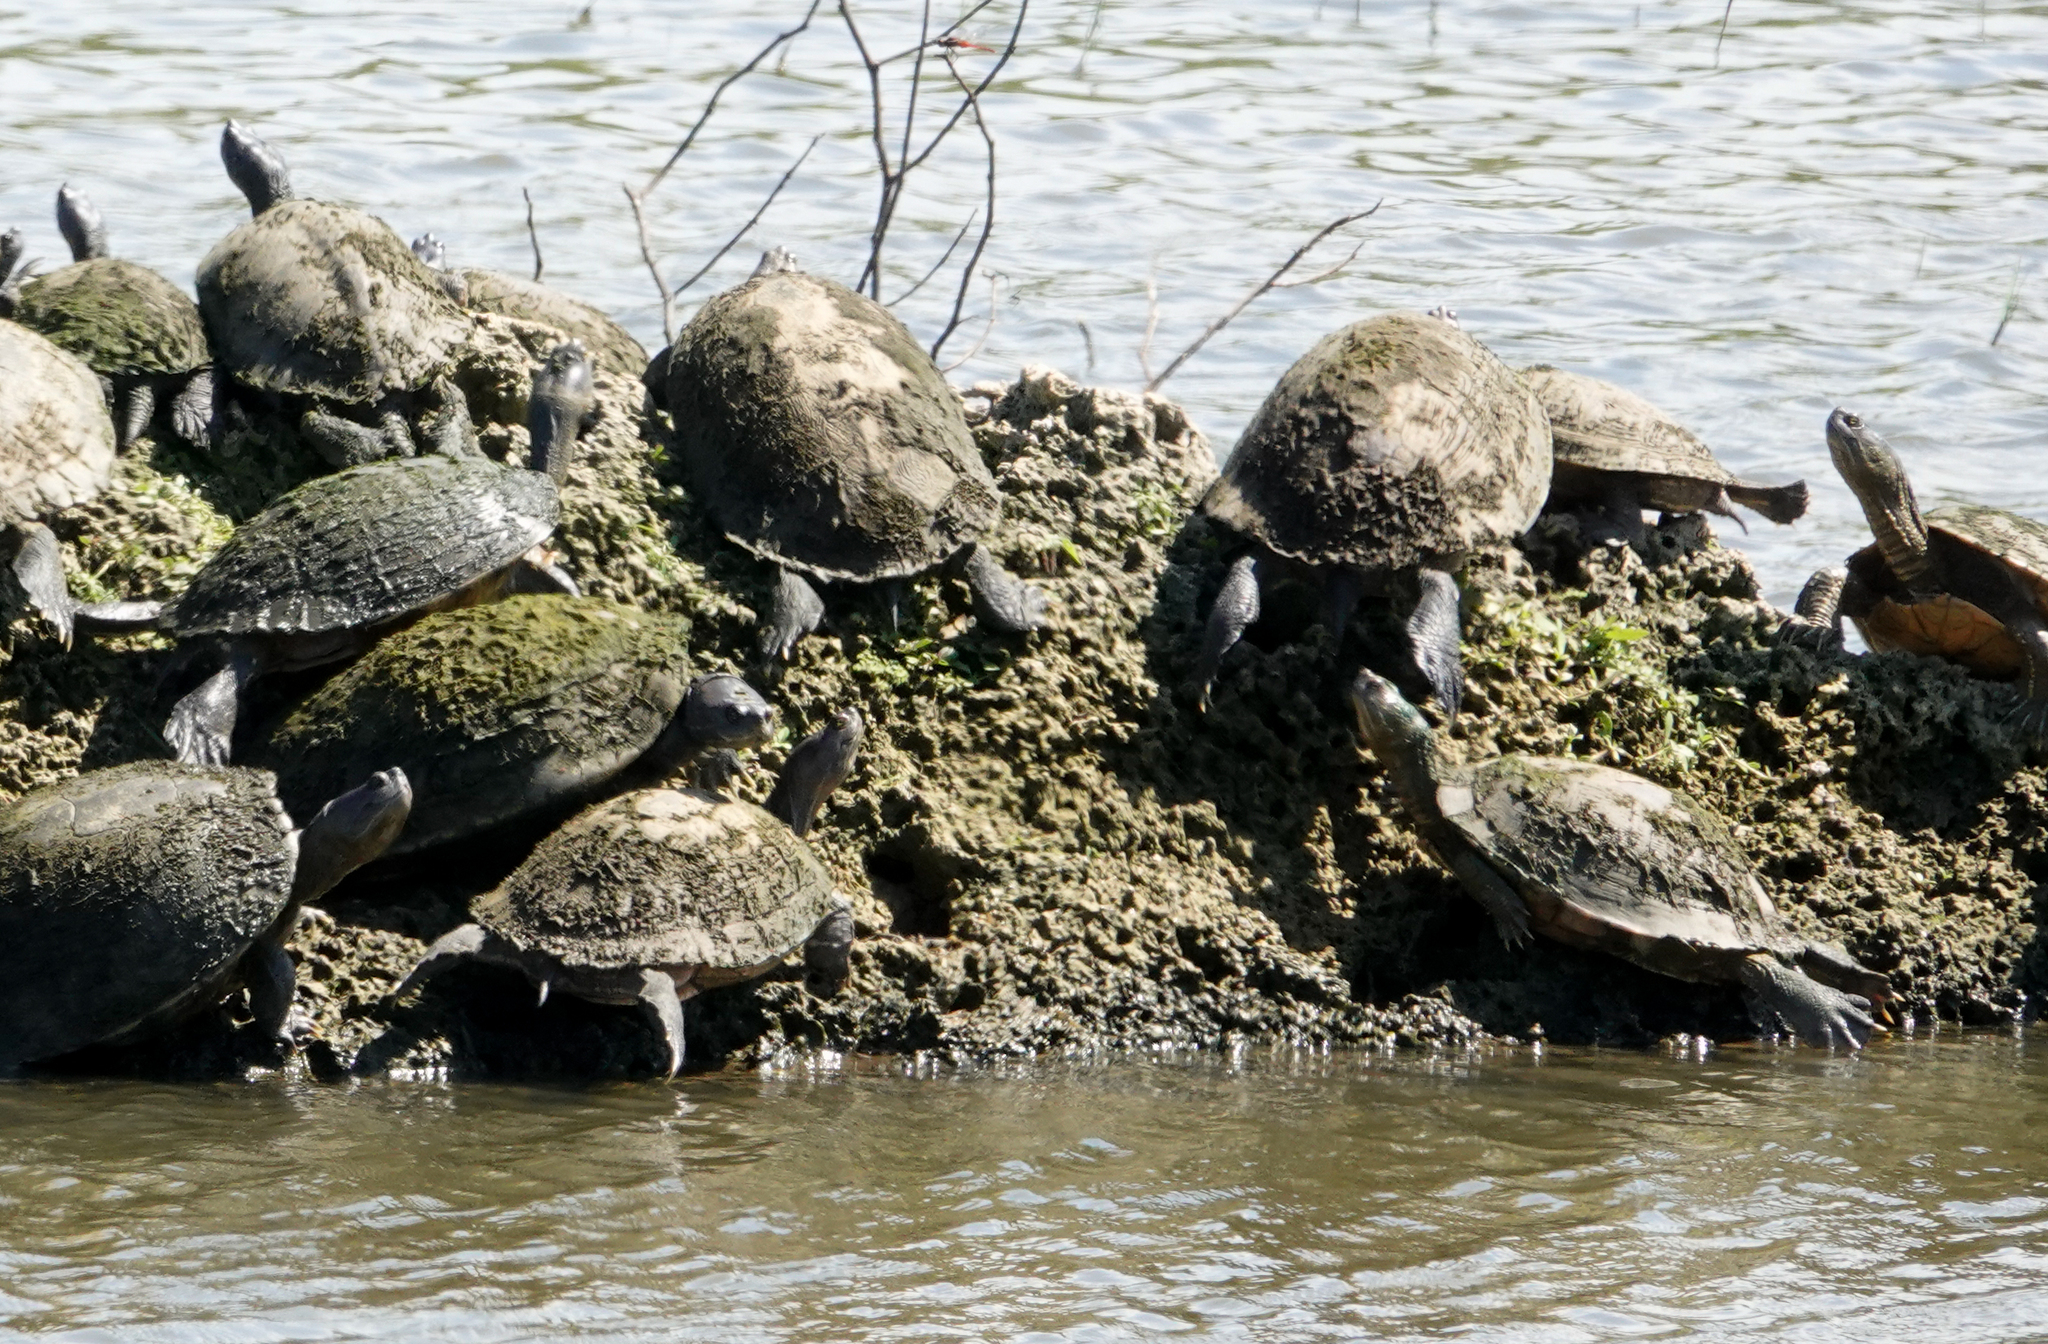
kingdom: Animalia
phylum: Chordata
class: Testudines
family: Emydidae
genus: Trachemys
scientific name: Trachemys stejnegeri
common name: Puerto rican slider
